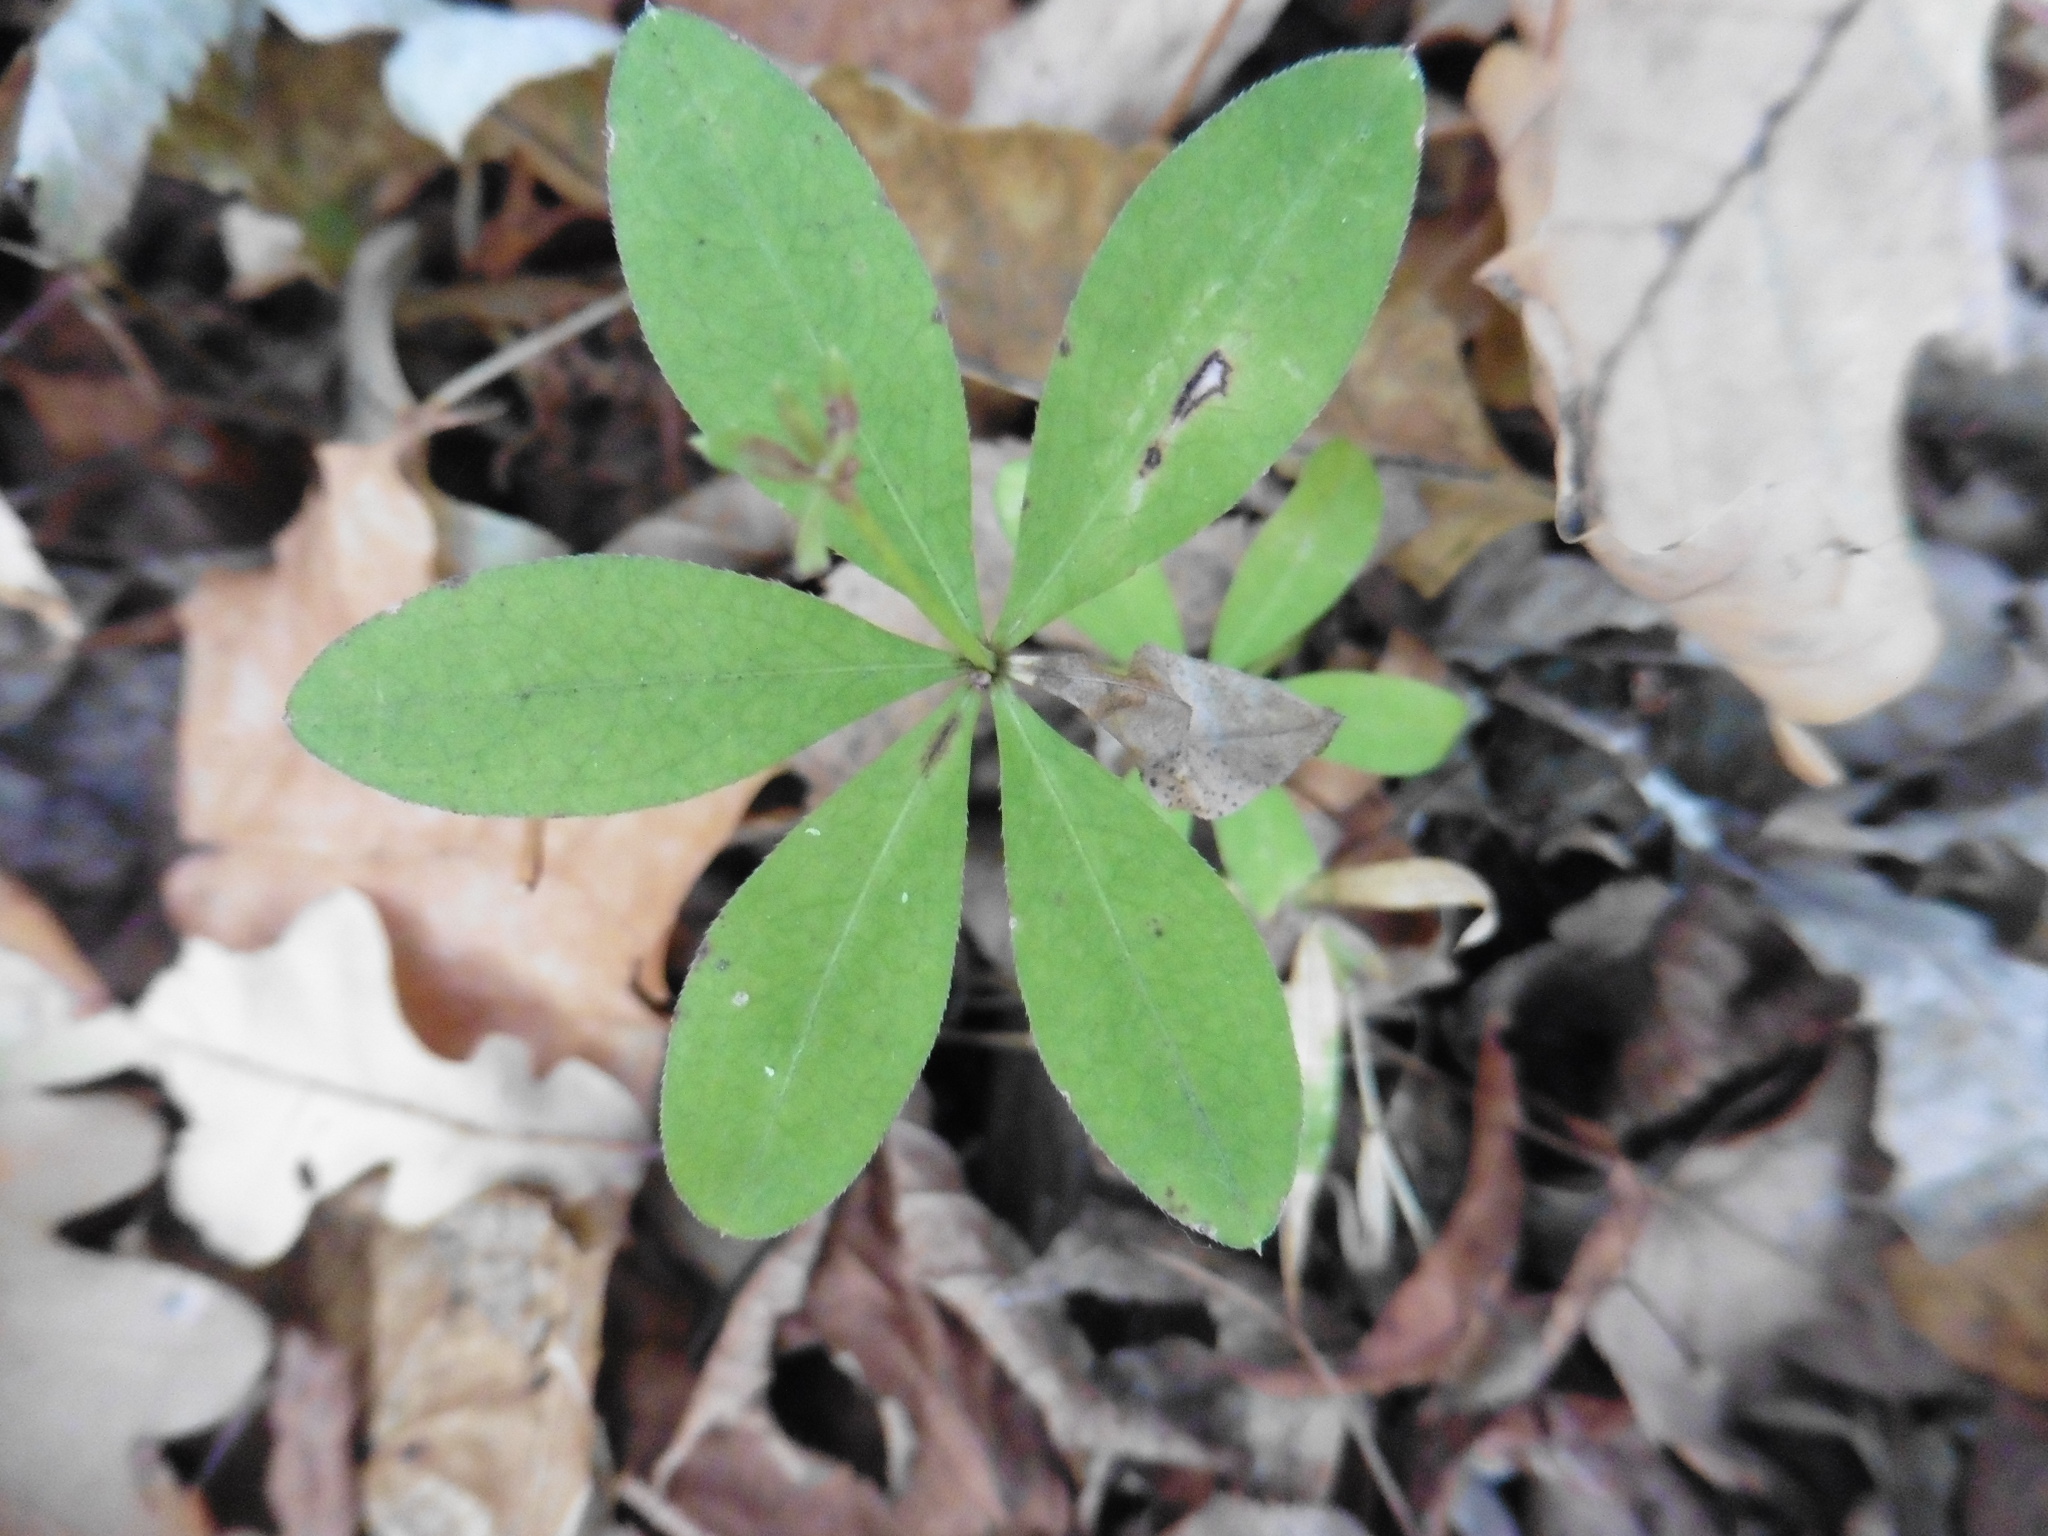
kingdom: Plantae
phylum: Tracheophyta
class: Magnoliopsida
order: Gentianales
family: Rubiaceae
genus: Galium
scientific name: Galium odoratum
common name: Sweet woodruff
